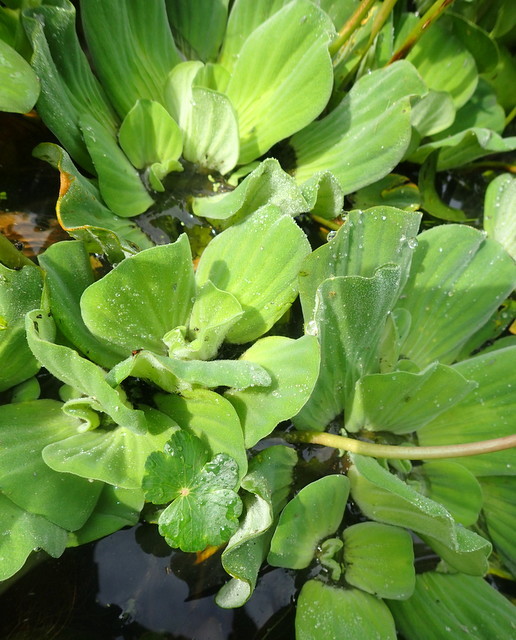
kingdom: Plantae
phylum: Tracheophyta
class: Liliopsida
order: Alismatales
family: Araceae
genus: Pistia
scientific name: Pistia stratiotes
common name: Water lettuce
